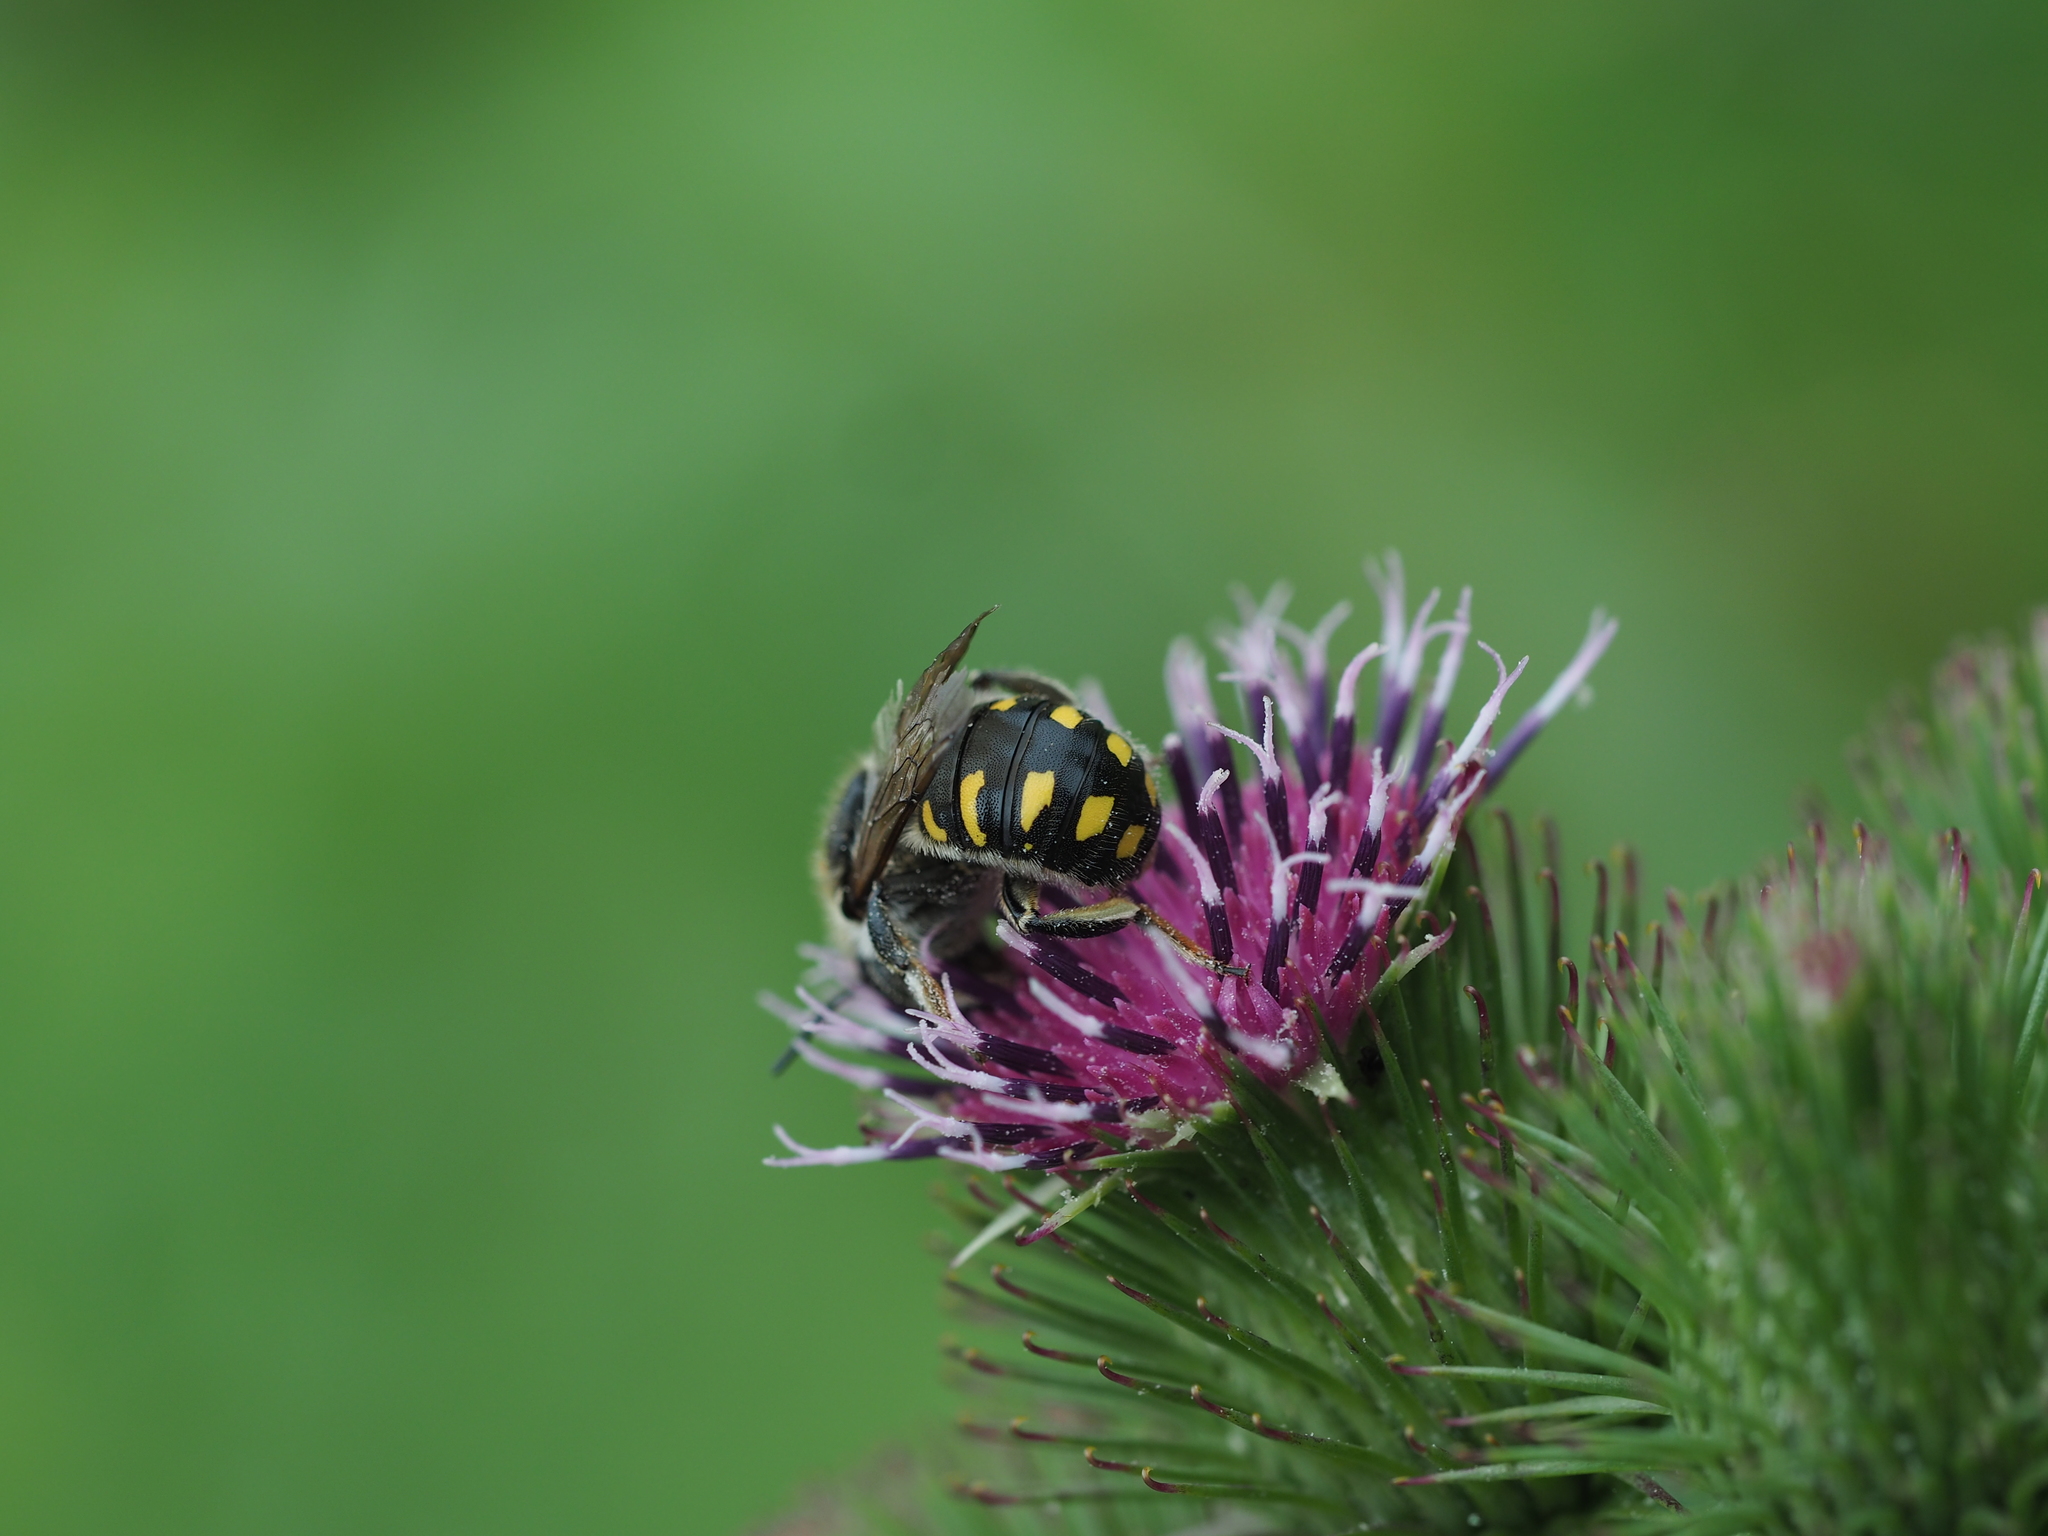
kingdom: Animalia
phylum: Arthropoda
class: Insecta
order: Hymenoptera
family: Megachilidae
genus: Anthidium
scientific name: Anthidium septemspinosum
